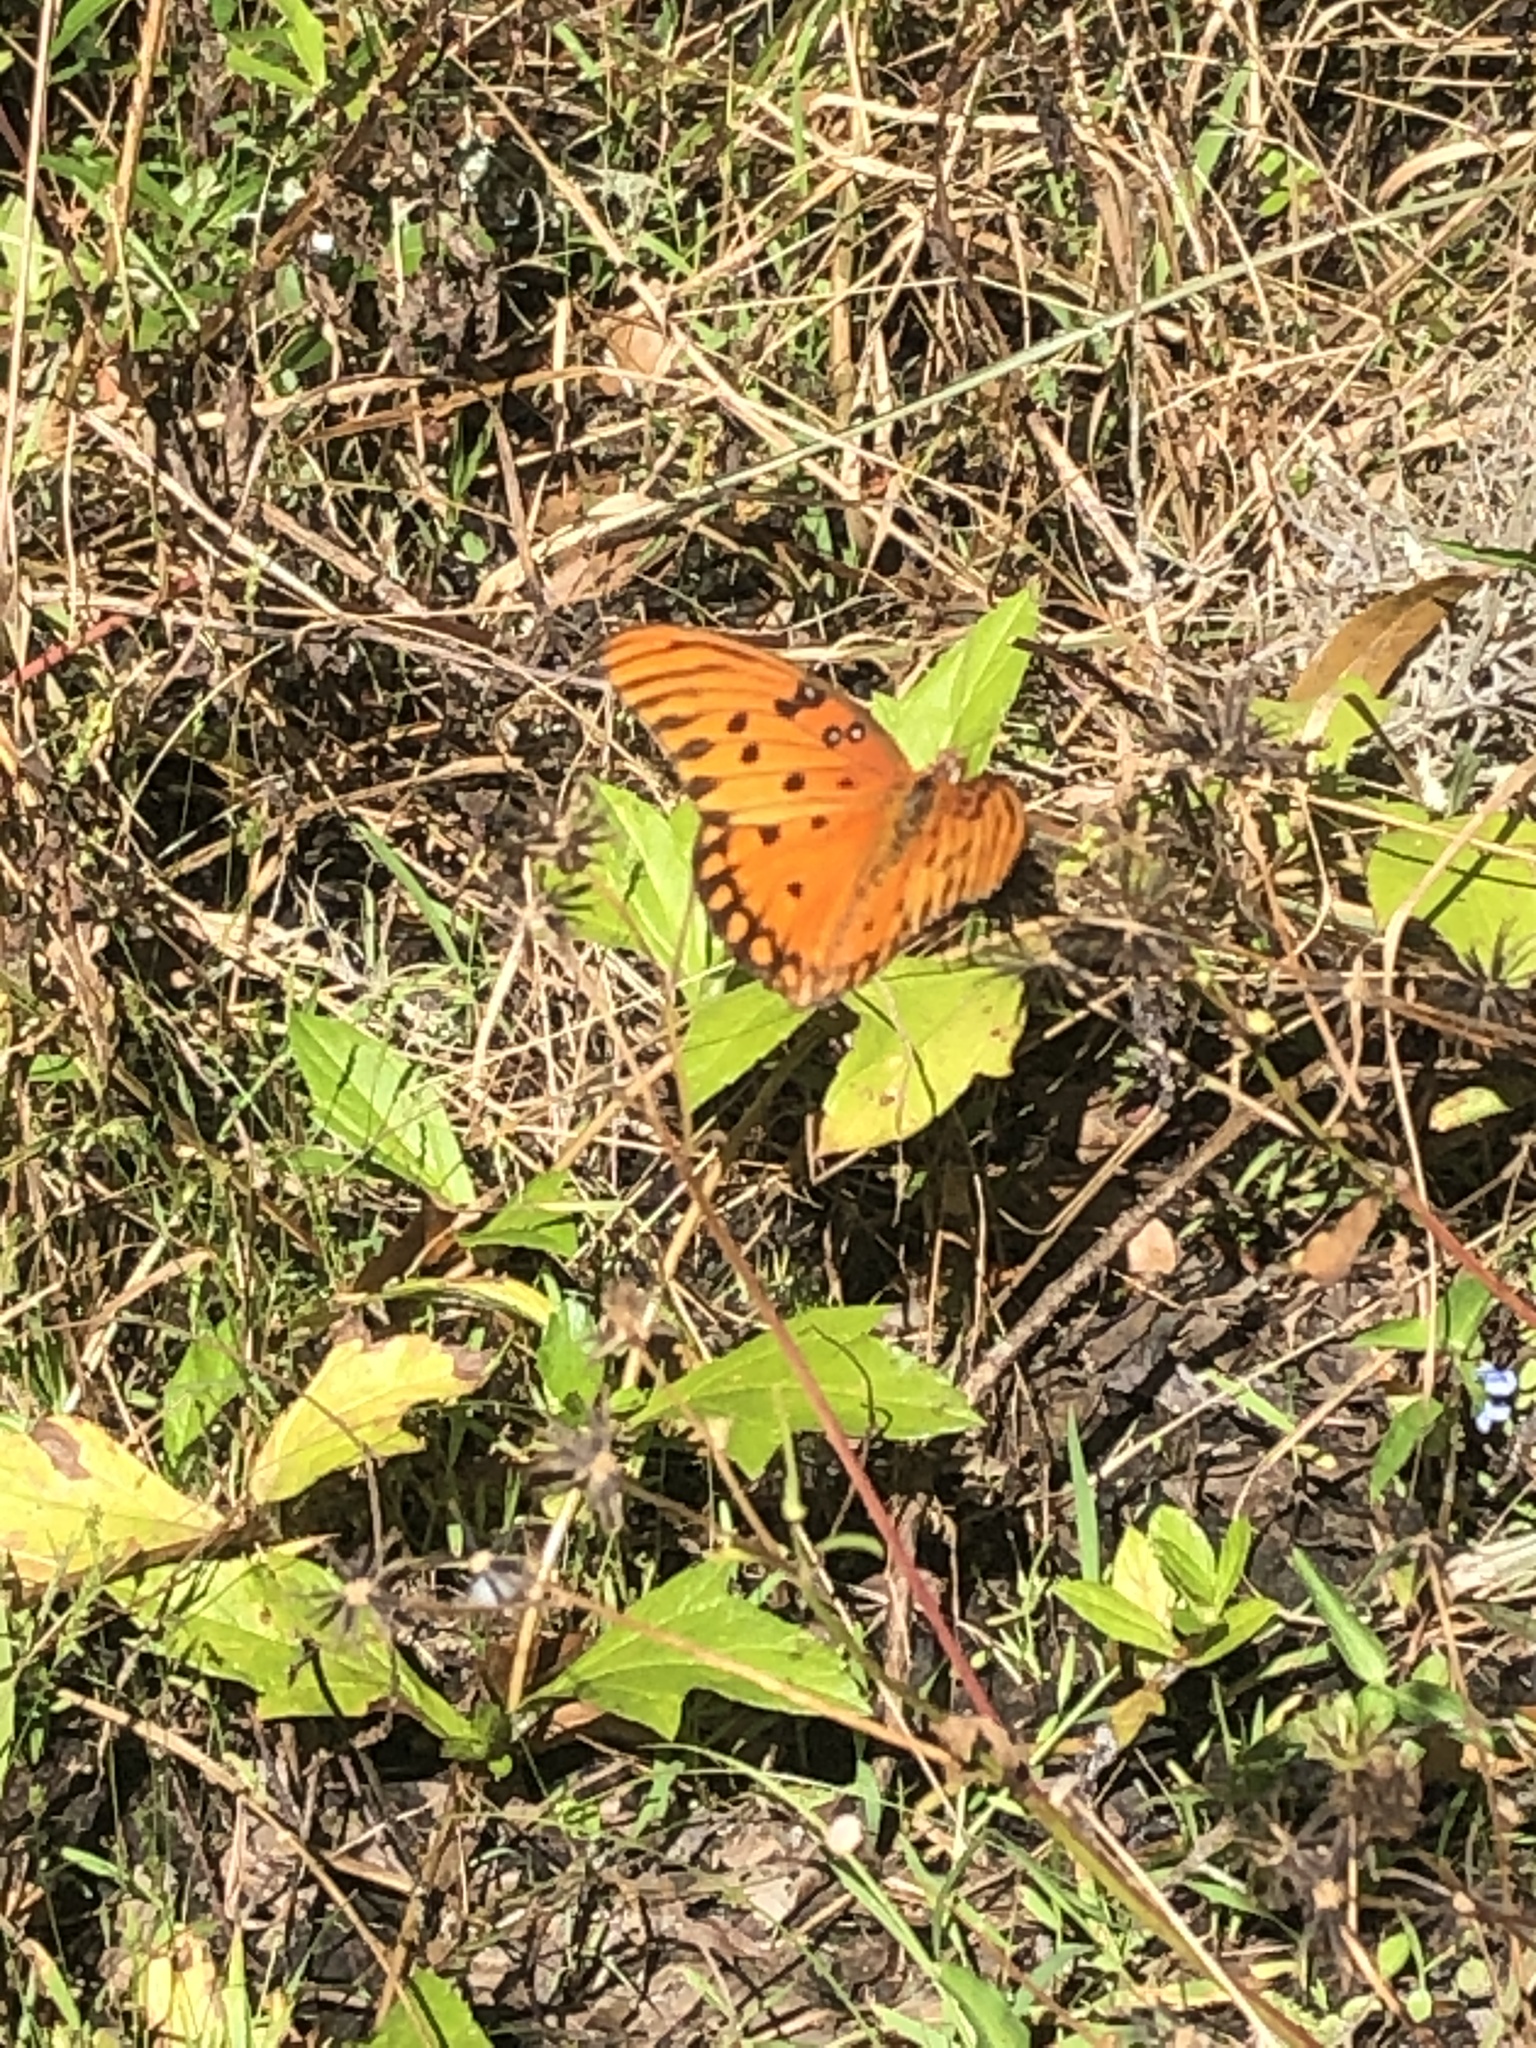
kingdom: Animalia
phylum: Arthropoda
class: Insecta
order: Lepidoptera
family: Nymphalidae
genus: Dione
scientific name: Dione vanillae
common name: Gulf fritillary
